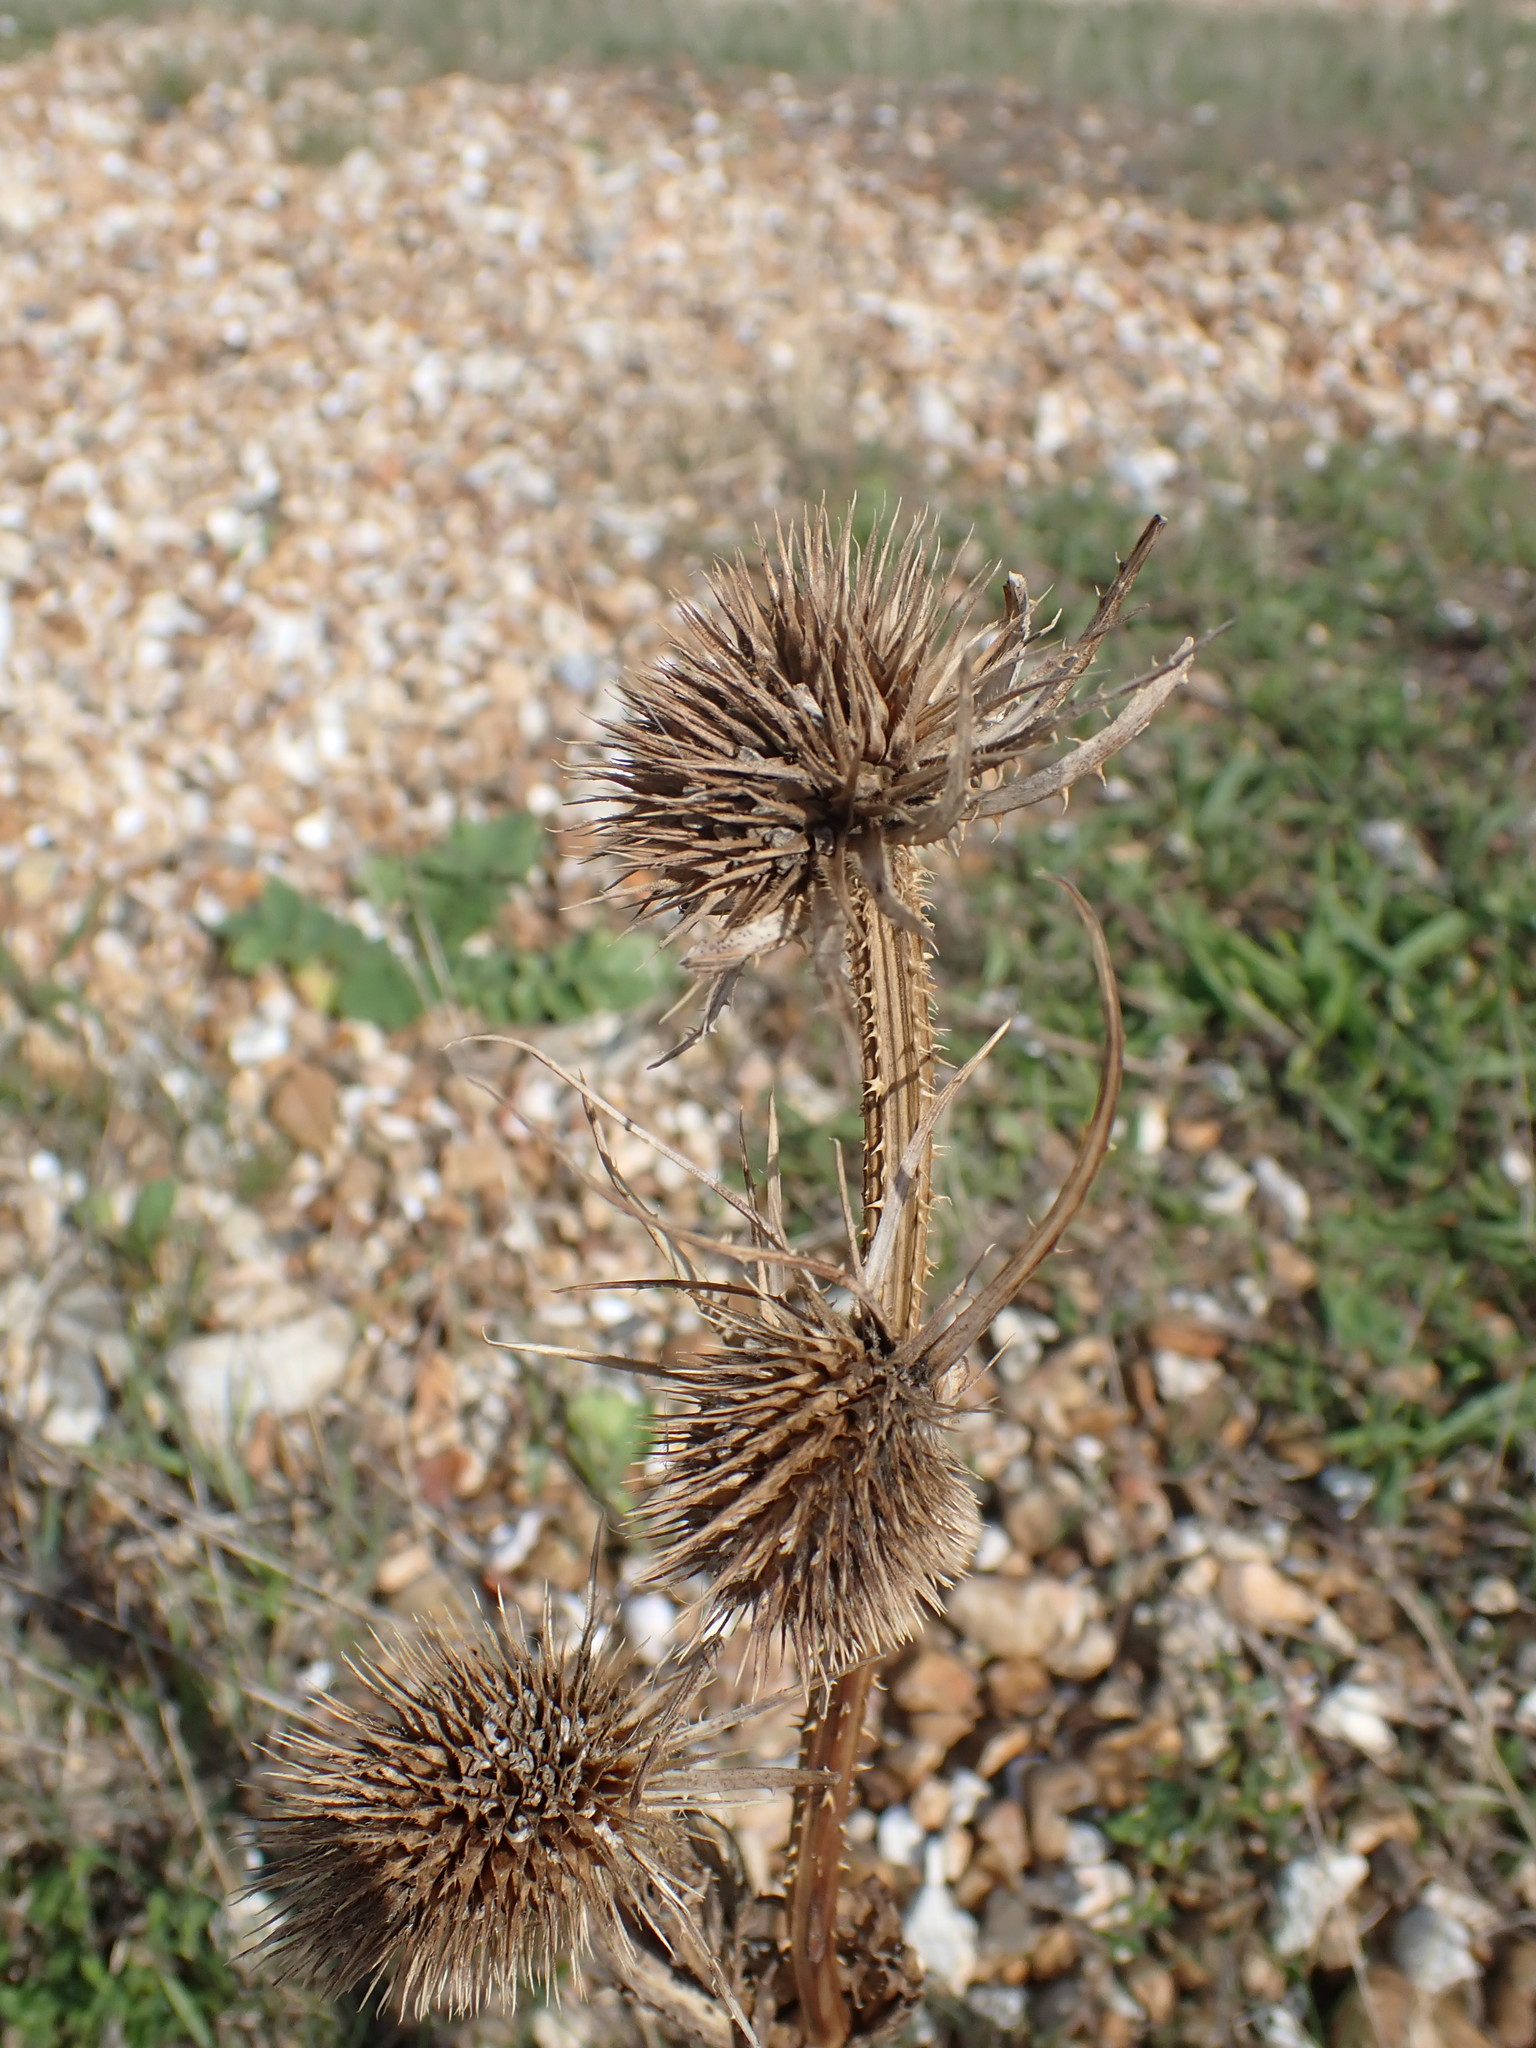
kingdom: Plantae
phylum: Tracheophyta
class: Magnoliopsida
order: Dipsacales
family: Caprifoliaceae
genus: Dipsacus
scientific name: Dipsacus fullonum
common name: Teasel
